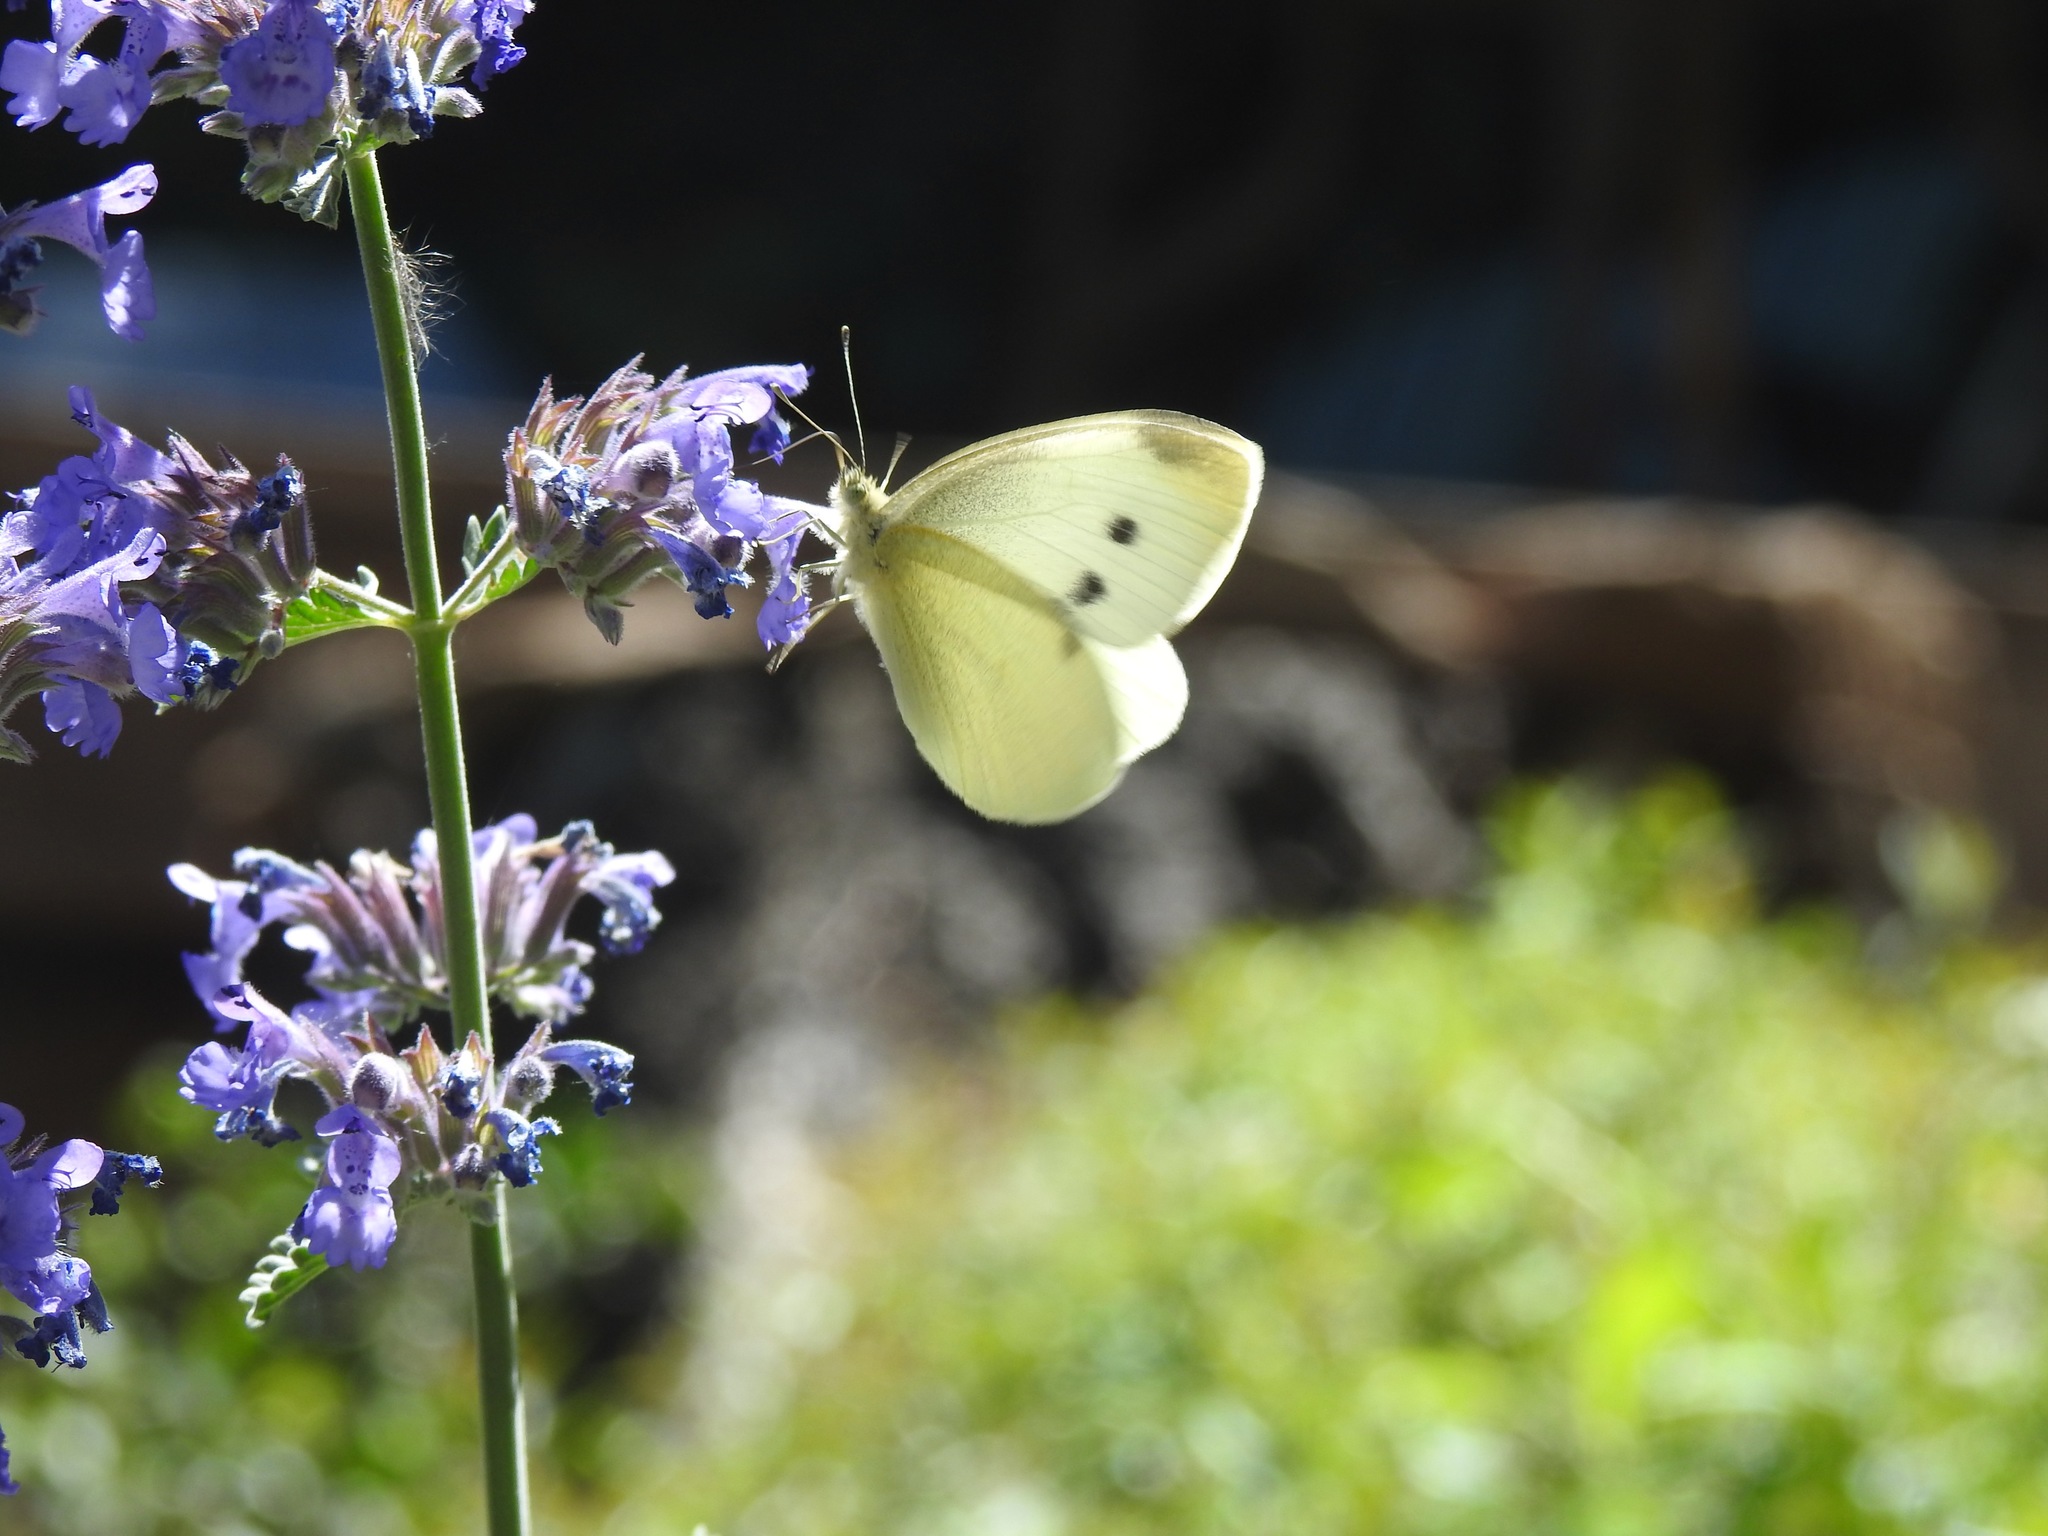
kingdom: Animalia
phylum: Arthropoda
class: Insecta
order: Lepidoptera
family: Pieridae
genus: Pieris
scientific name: Pieris rapae
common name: Small white
